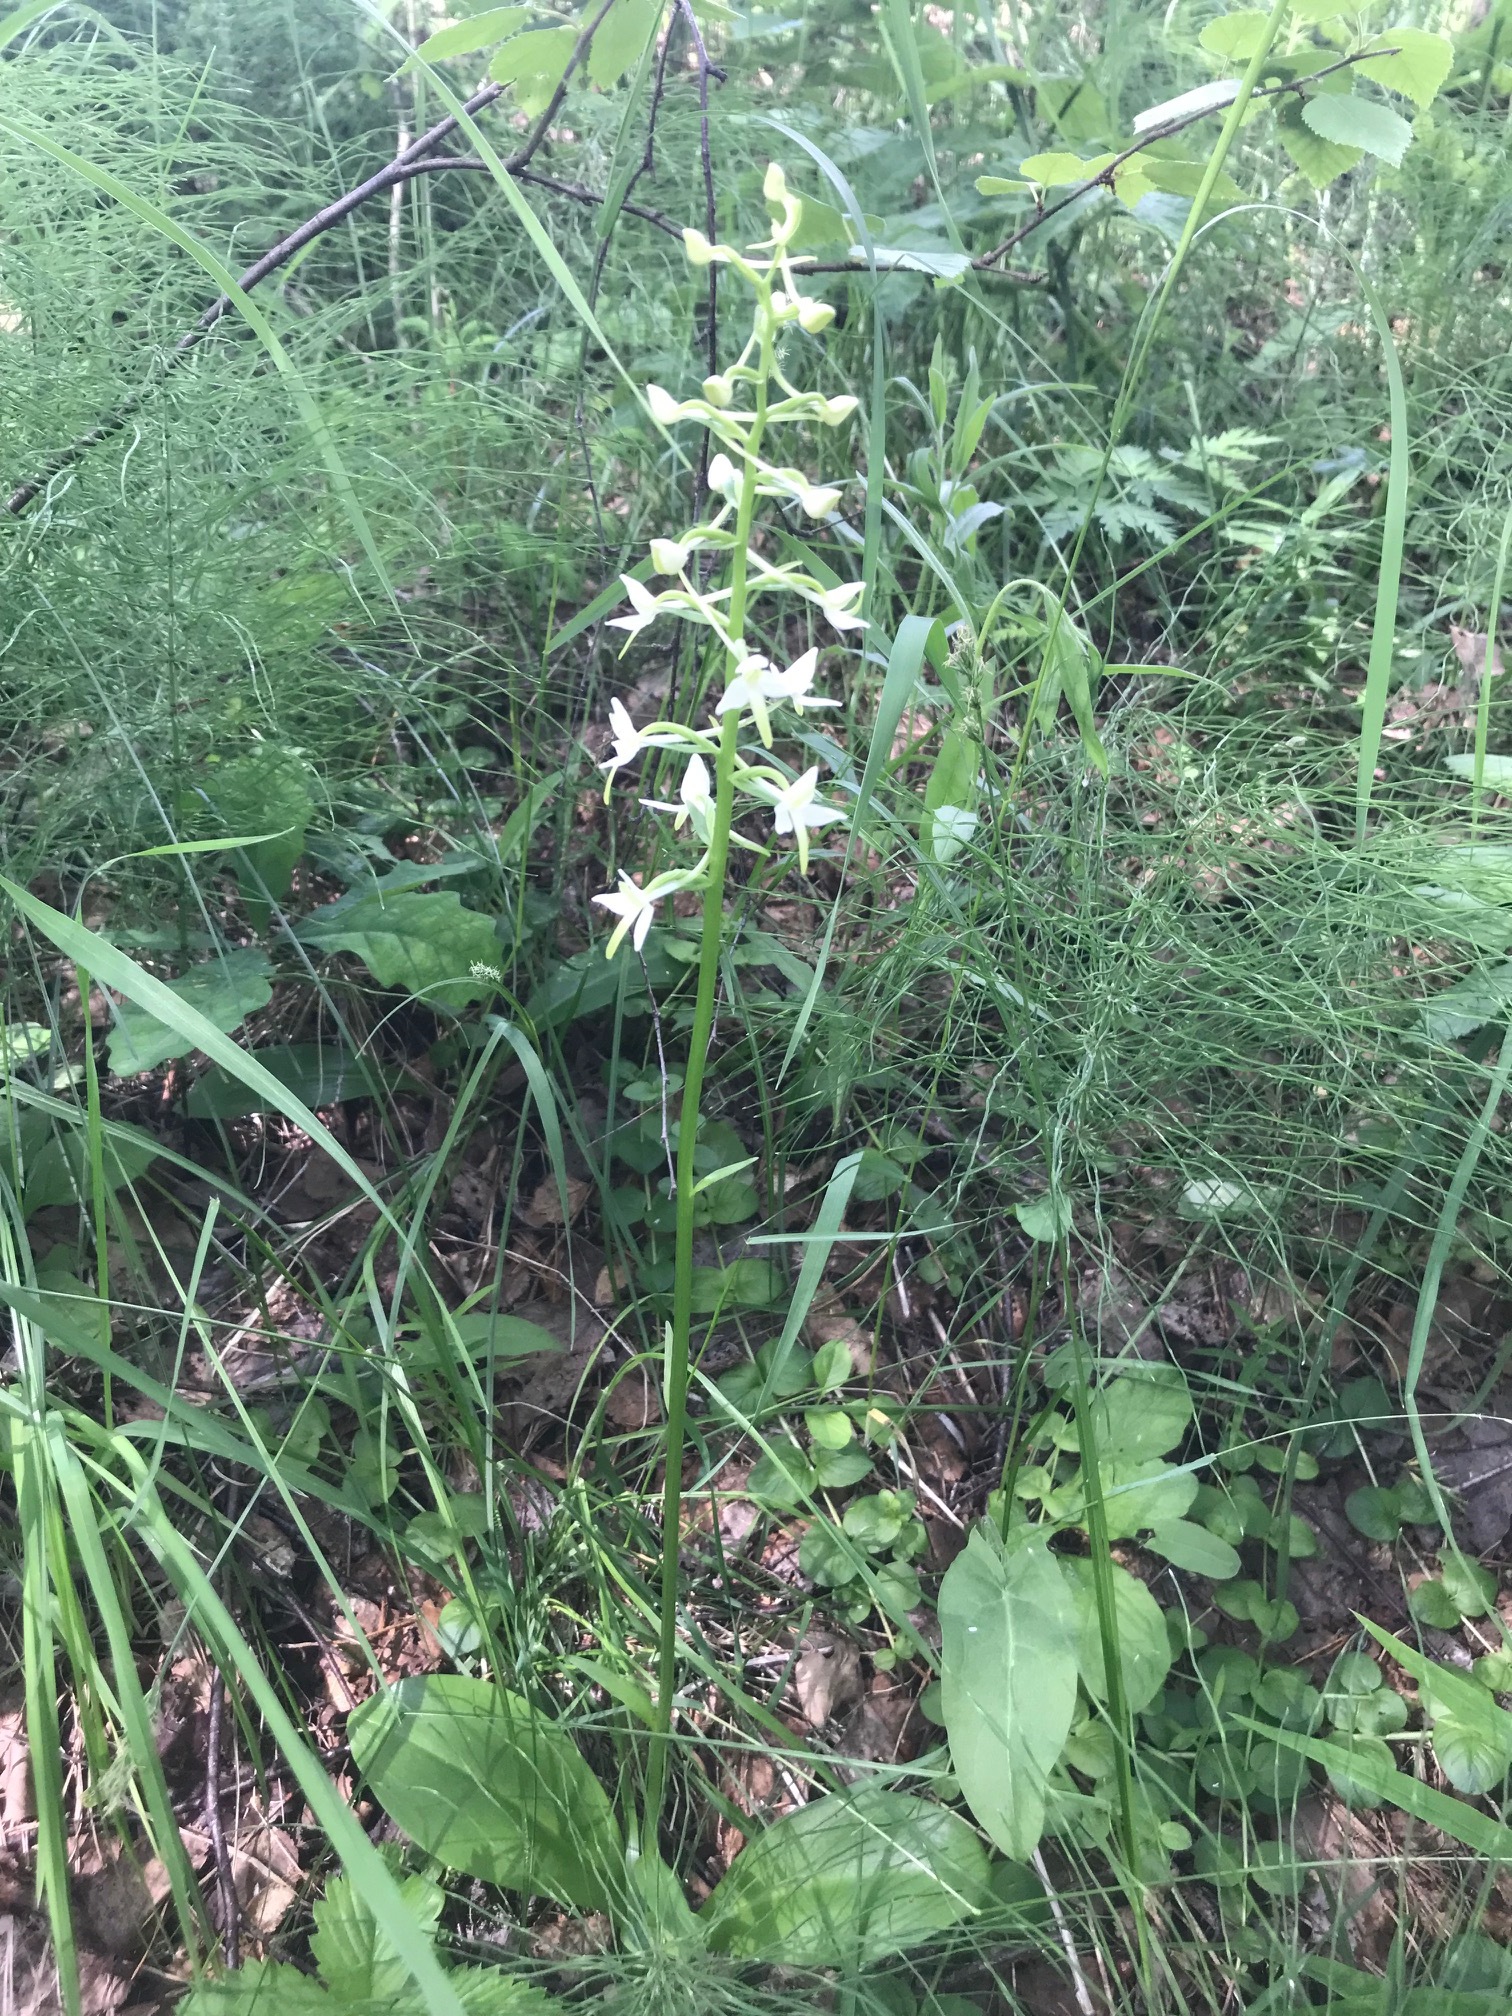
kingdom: Plantae
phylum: Tracheophyta
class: Liliopsida
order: Asparagales
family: Orchidaceae
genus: Platanthera
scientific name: Platanthera bifolia
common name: Lesser butterfly-orchid
